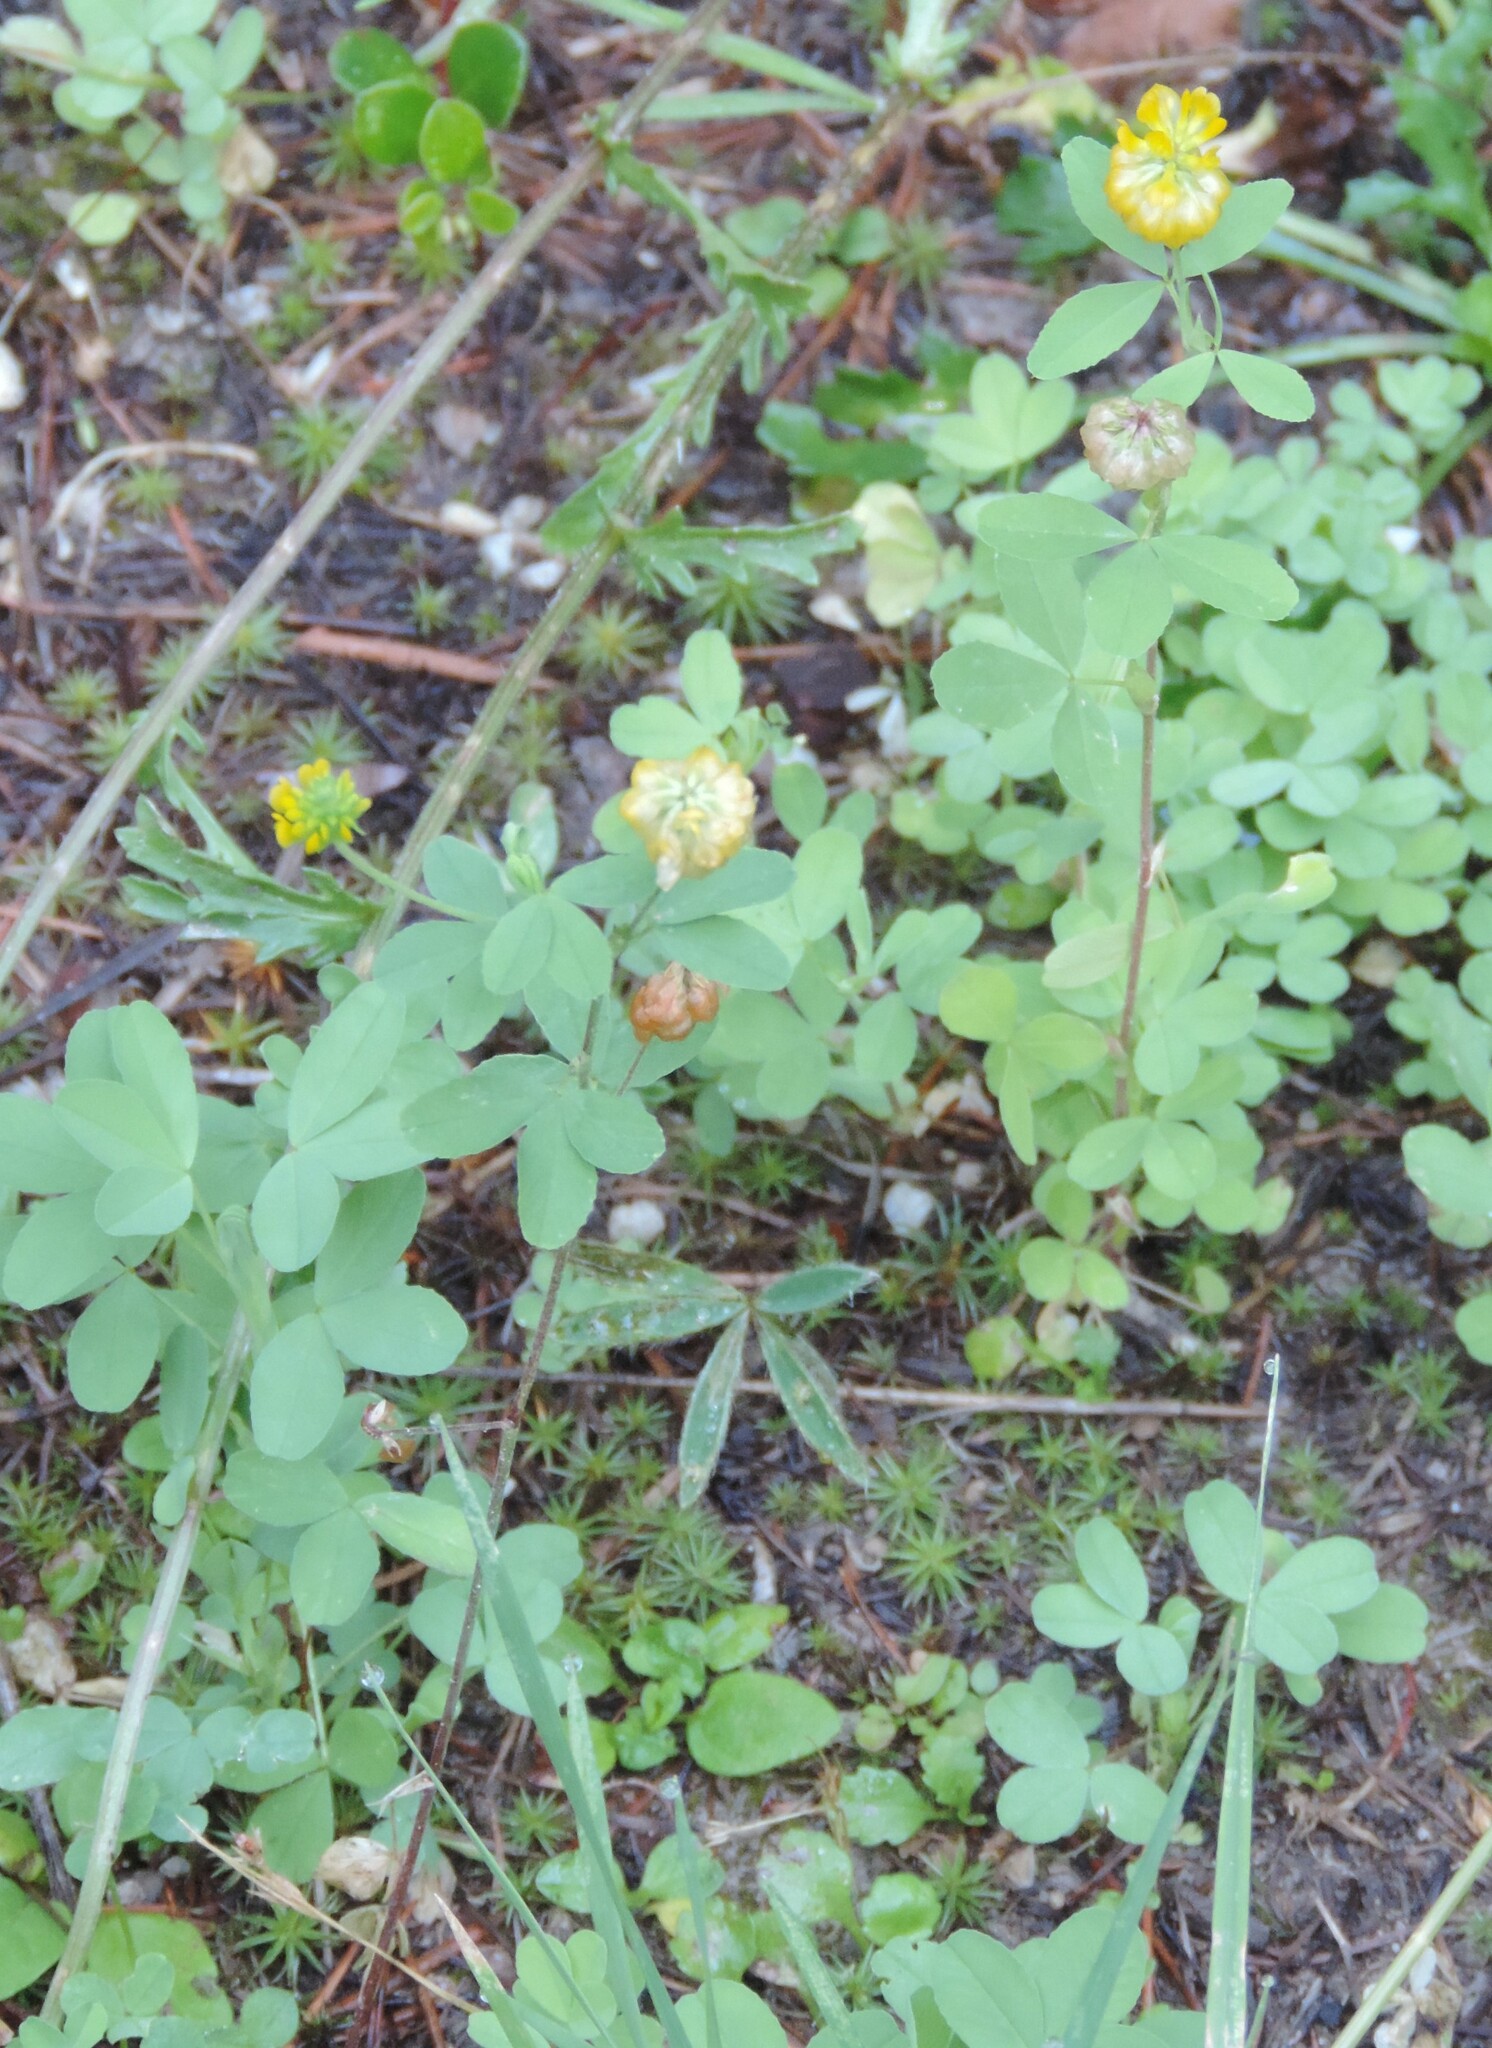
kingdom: Plantae
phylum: Tracheophyta
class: Magnoliopsida
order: Fabales
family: Fabaceae
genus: Trifolium
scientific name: Trifolium aureum
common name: Golden clover
